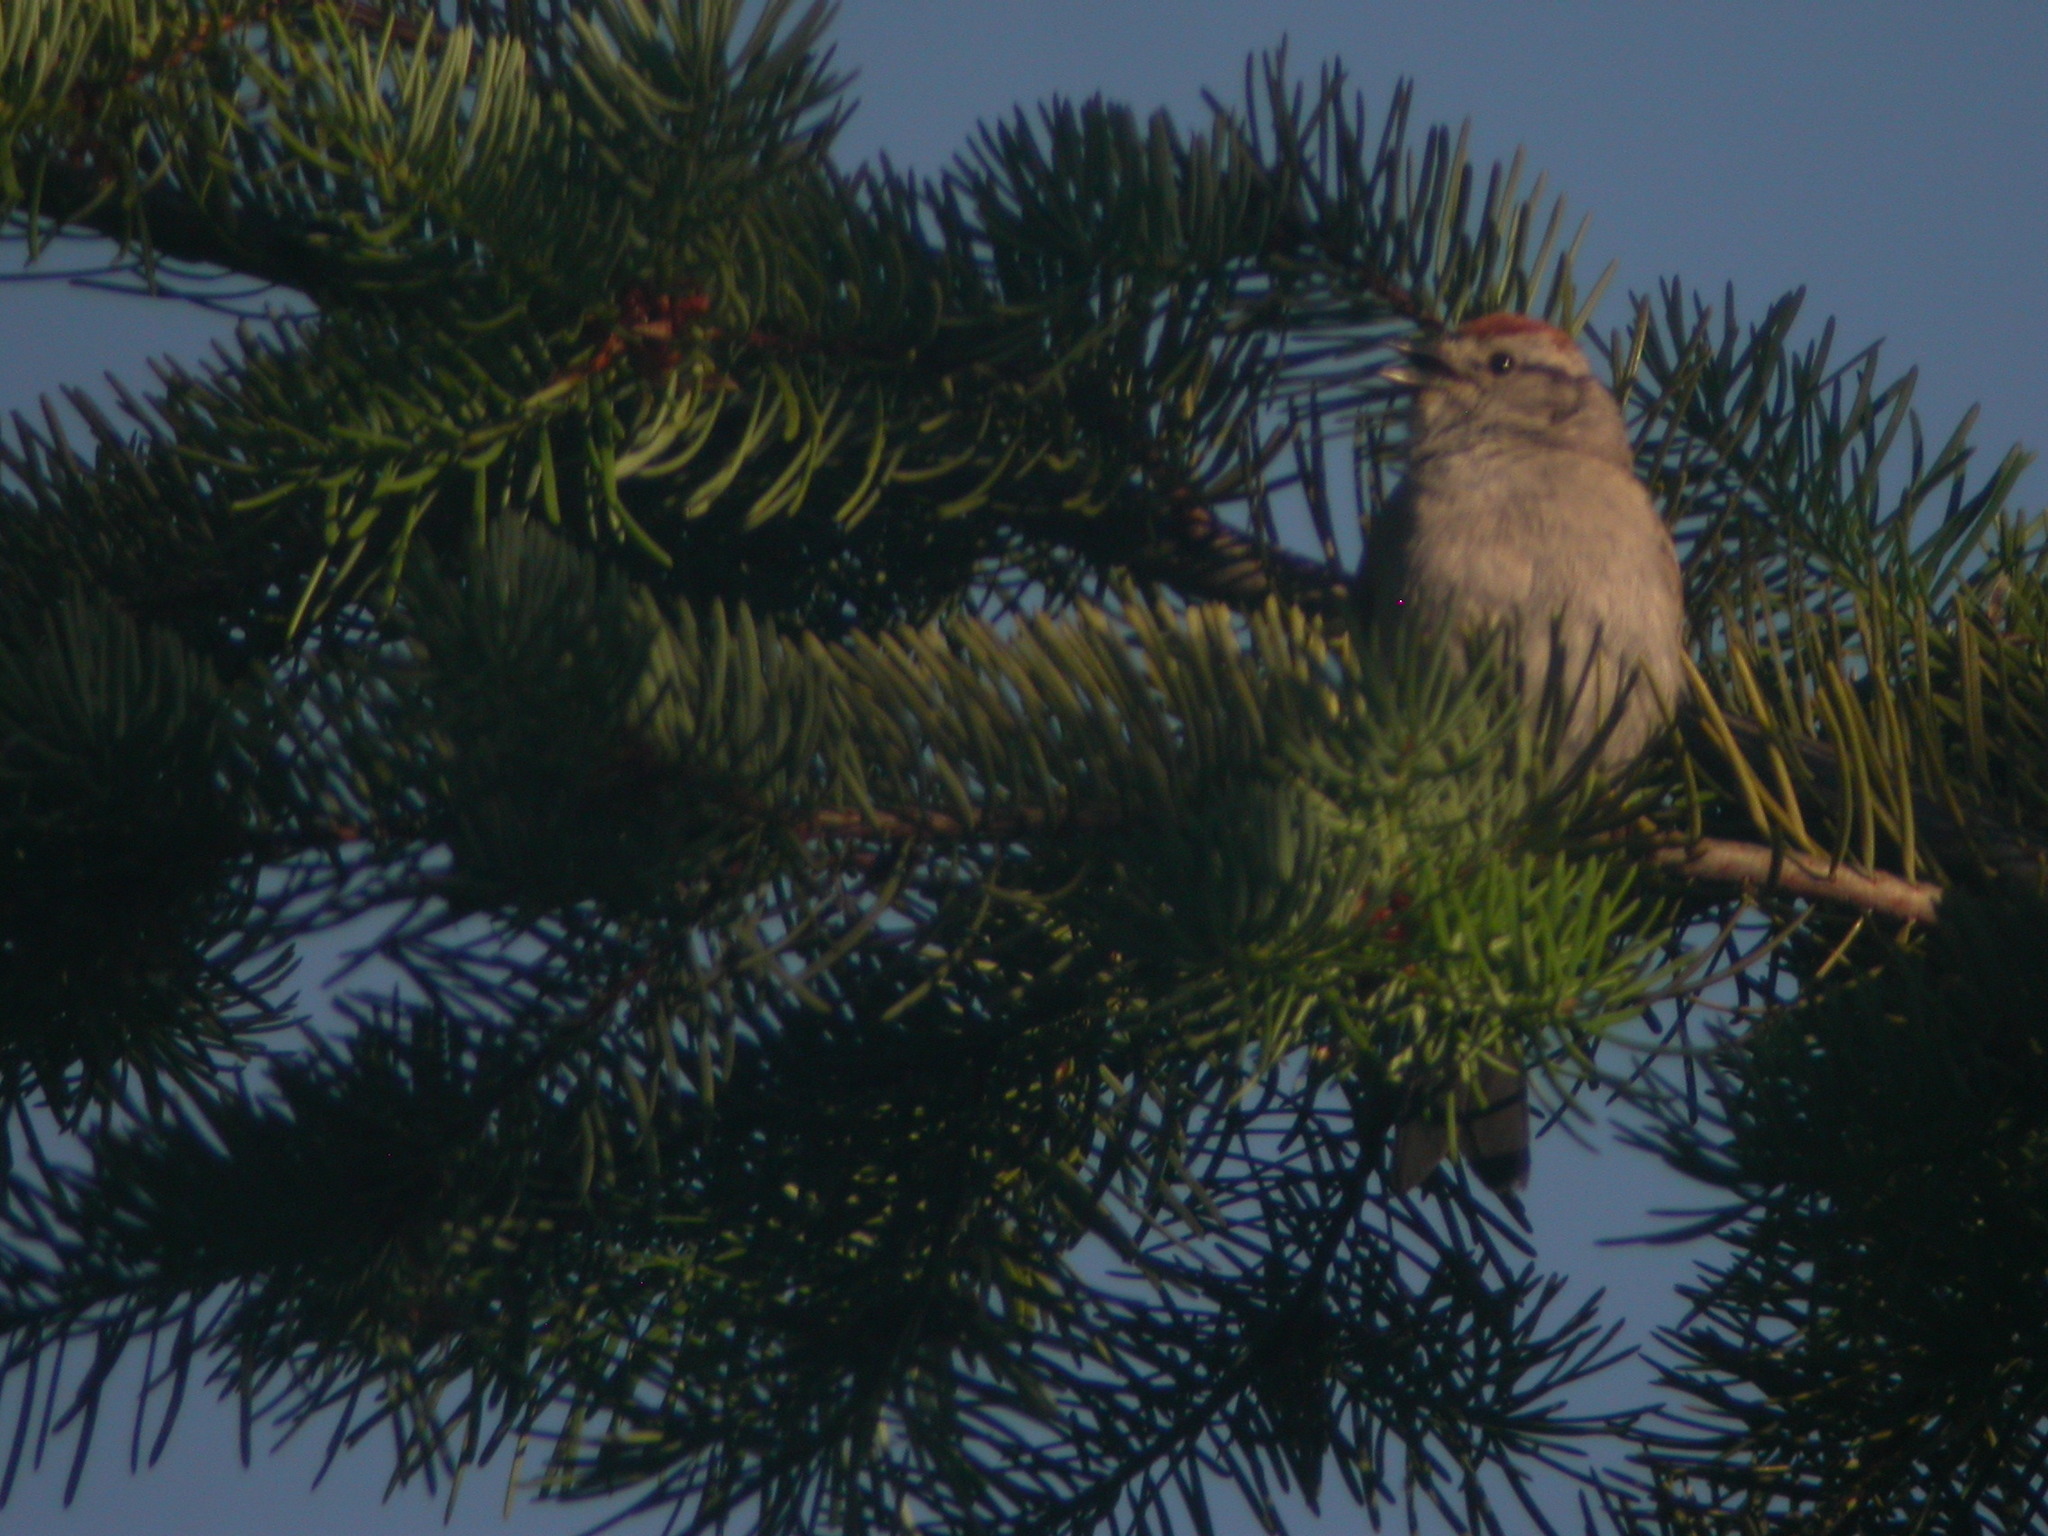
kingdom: Animalia
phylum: Chordata
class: Aves
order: Passeriformes
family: Passerellidae
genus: Spizella
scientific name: Spizella passerina
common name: Chipping sparrow
